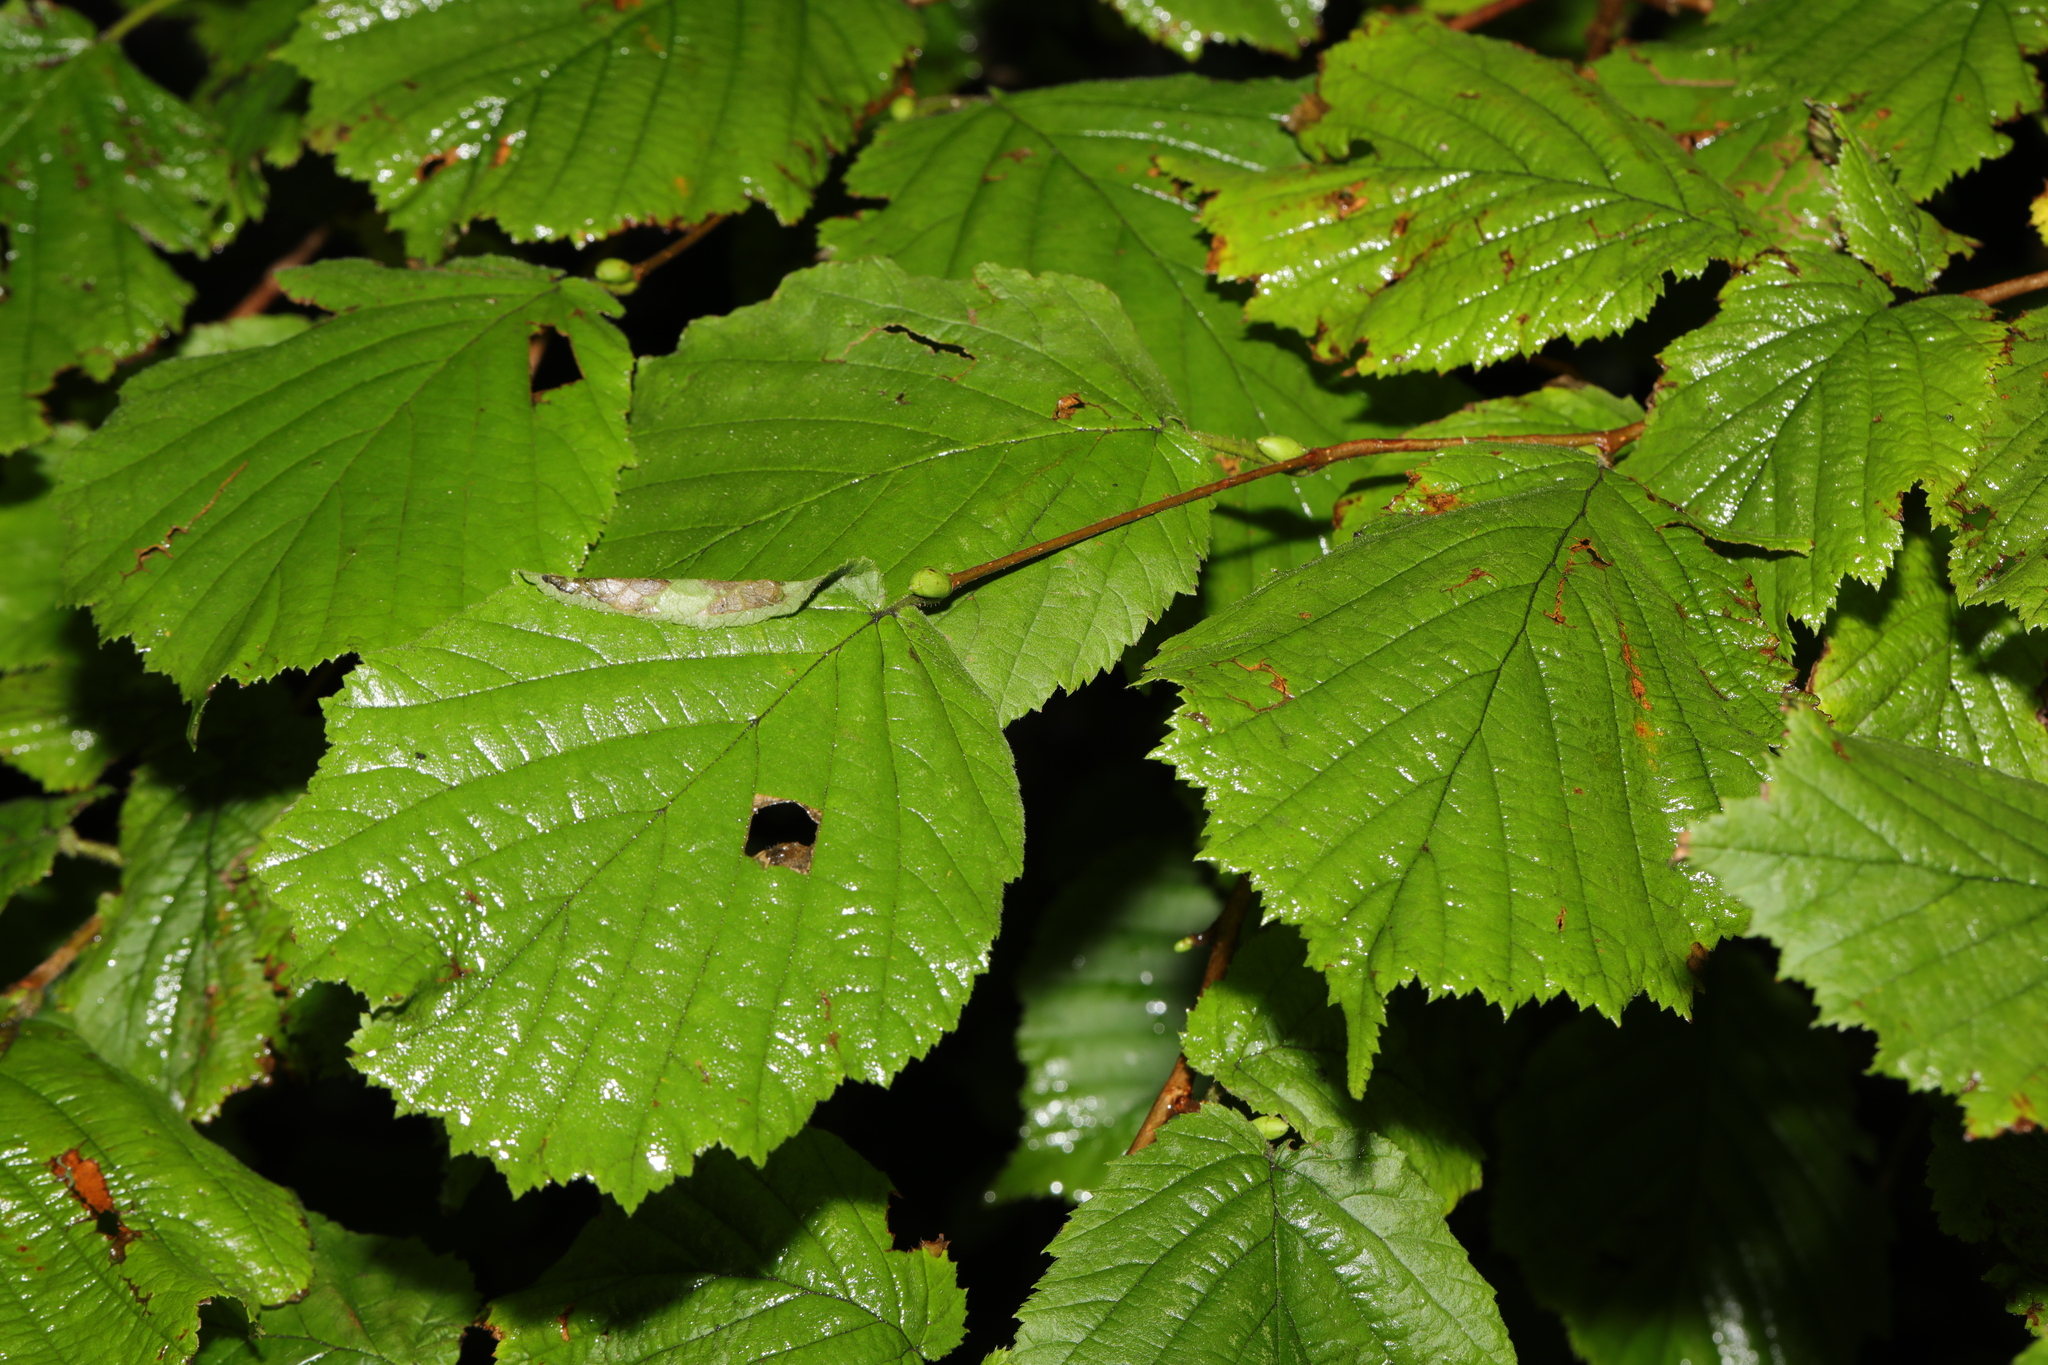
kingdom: Plantae
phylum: Tracheophyta
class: Magnoliopsida
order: Fagales
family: Betulaceae
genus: Corylus
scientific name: Corylus avellana
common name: European hazel
